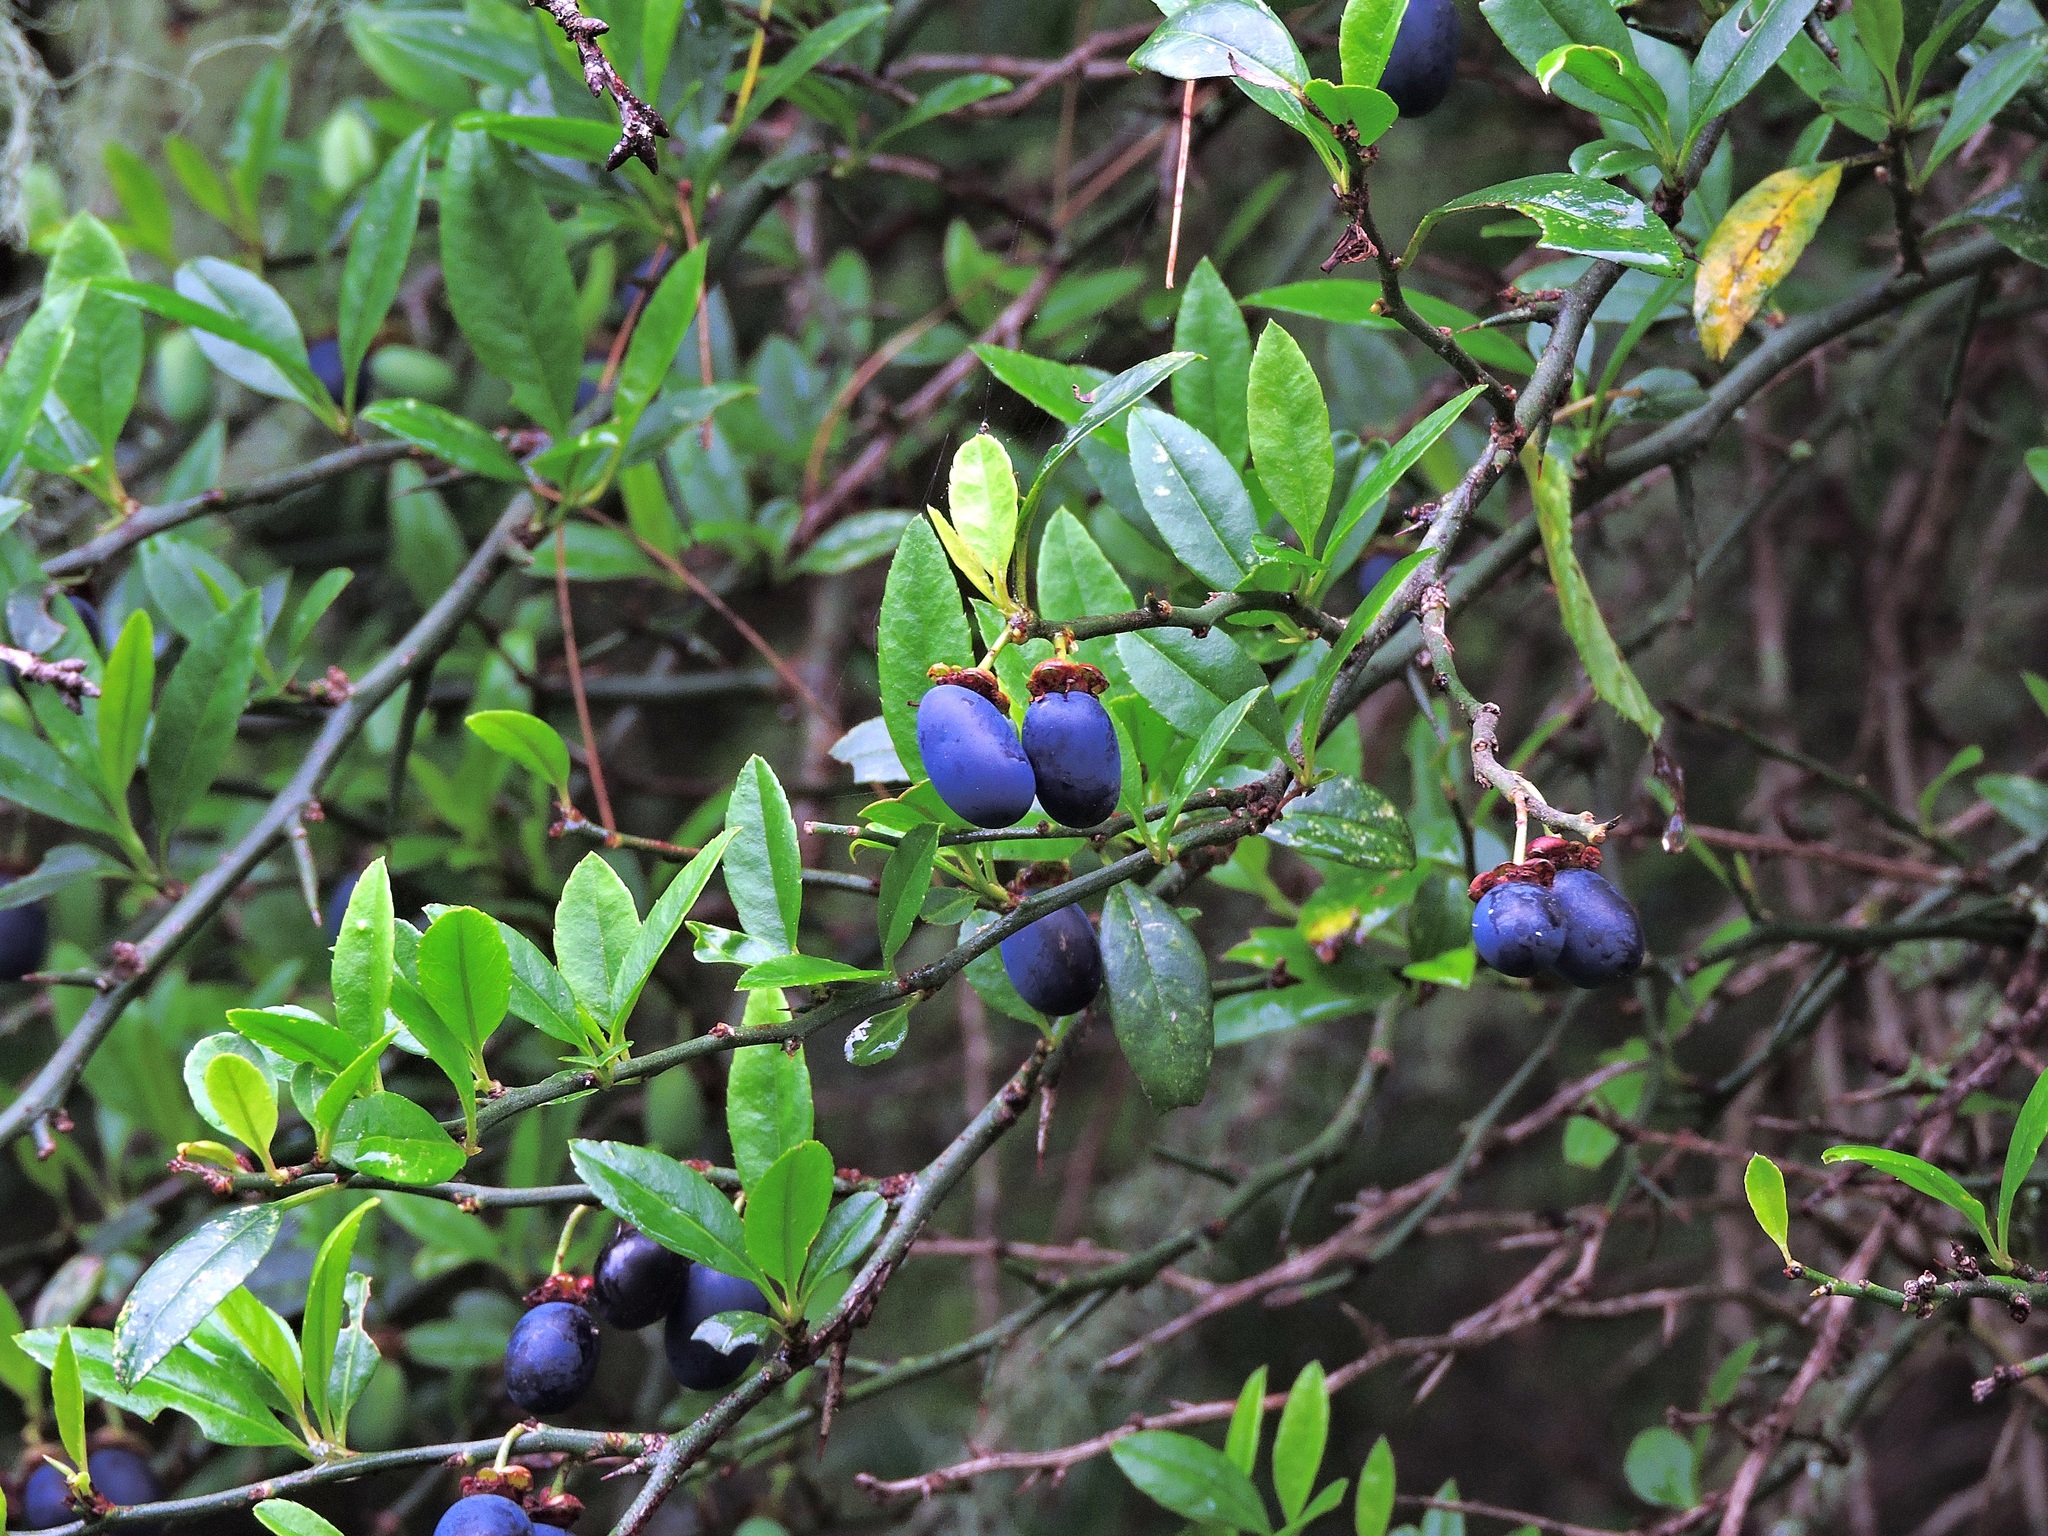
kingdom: Plantae
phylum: Tracheophyta
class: Magnoliopsida
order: Rosales
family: Rosaceae
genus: Prinsepia
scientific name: Prinsepia scandens
